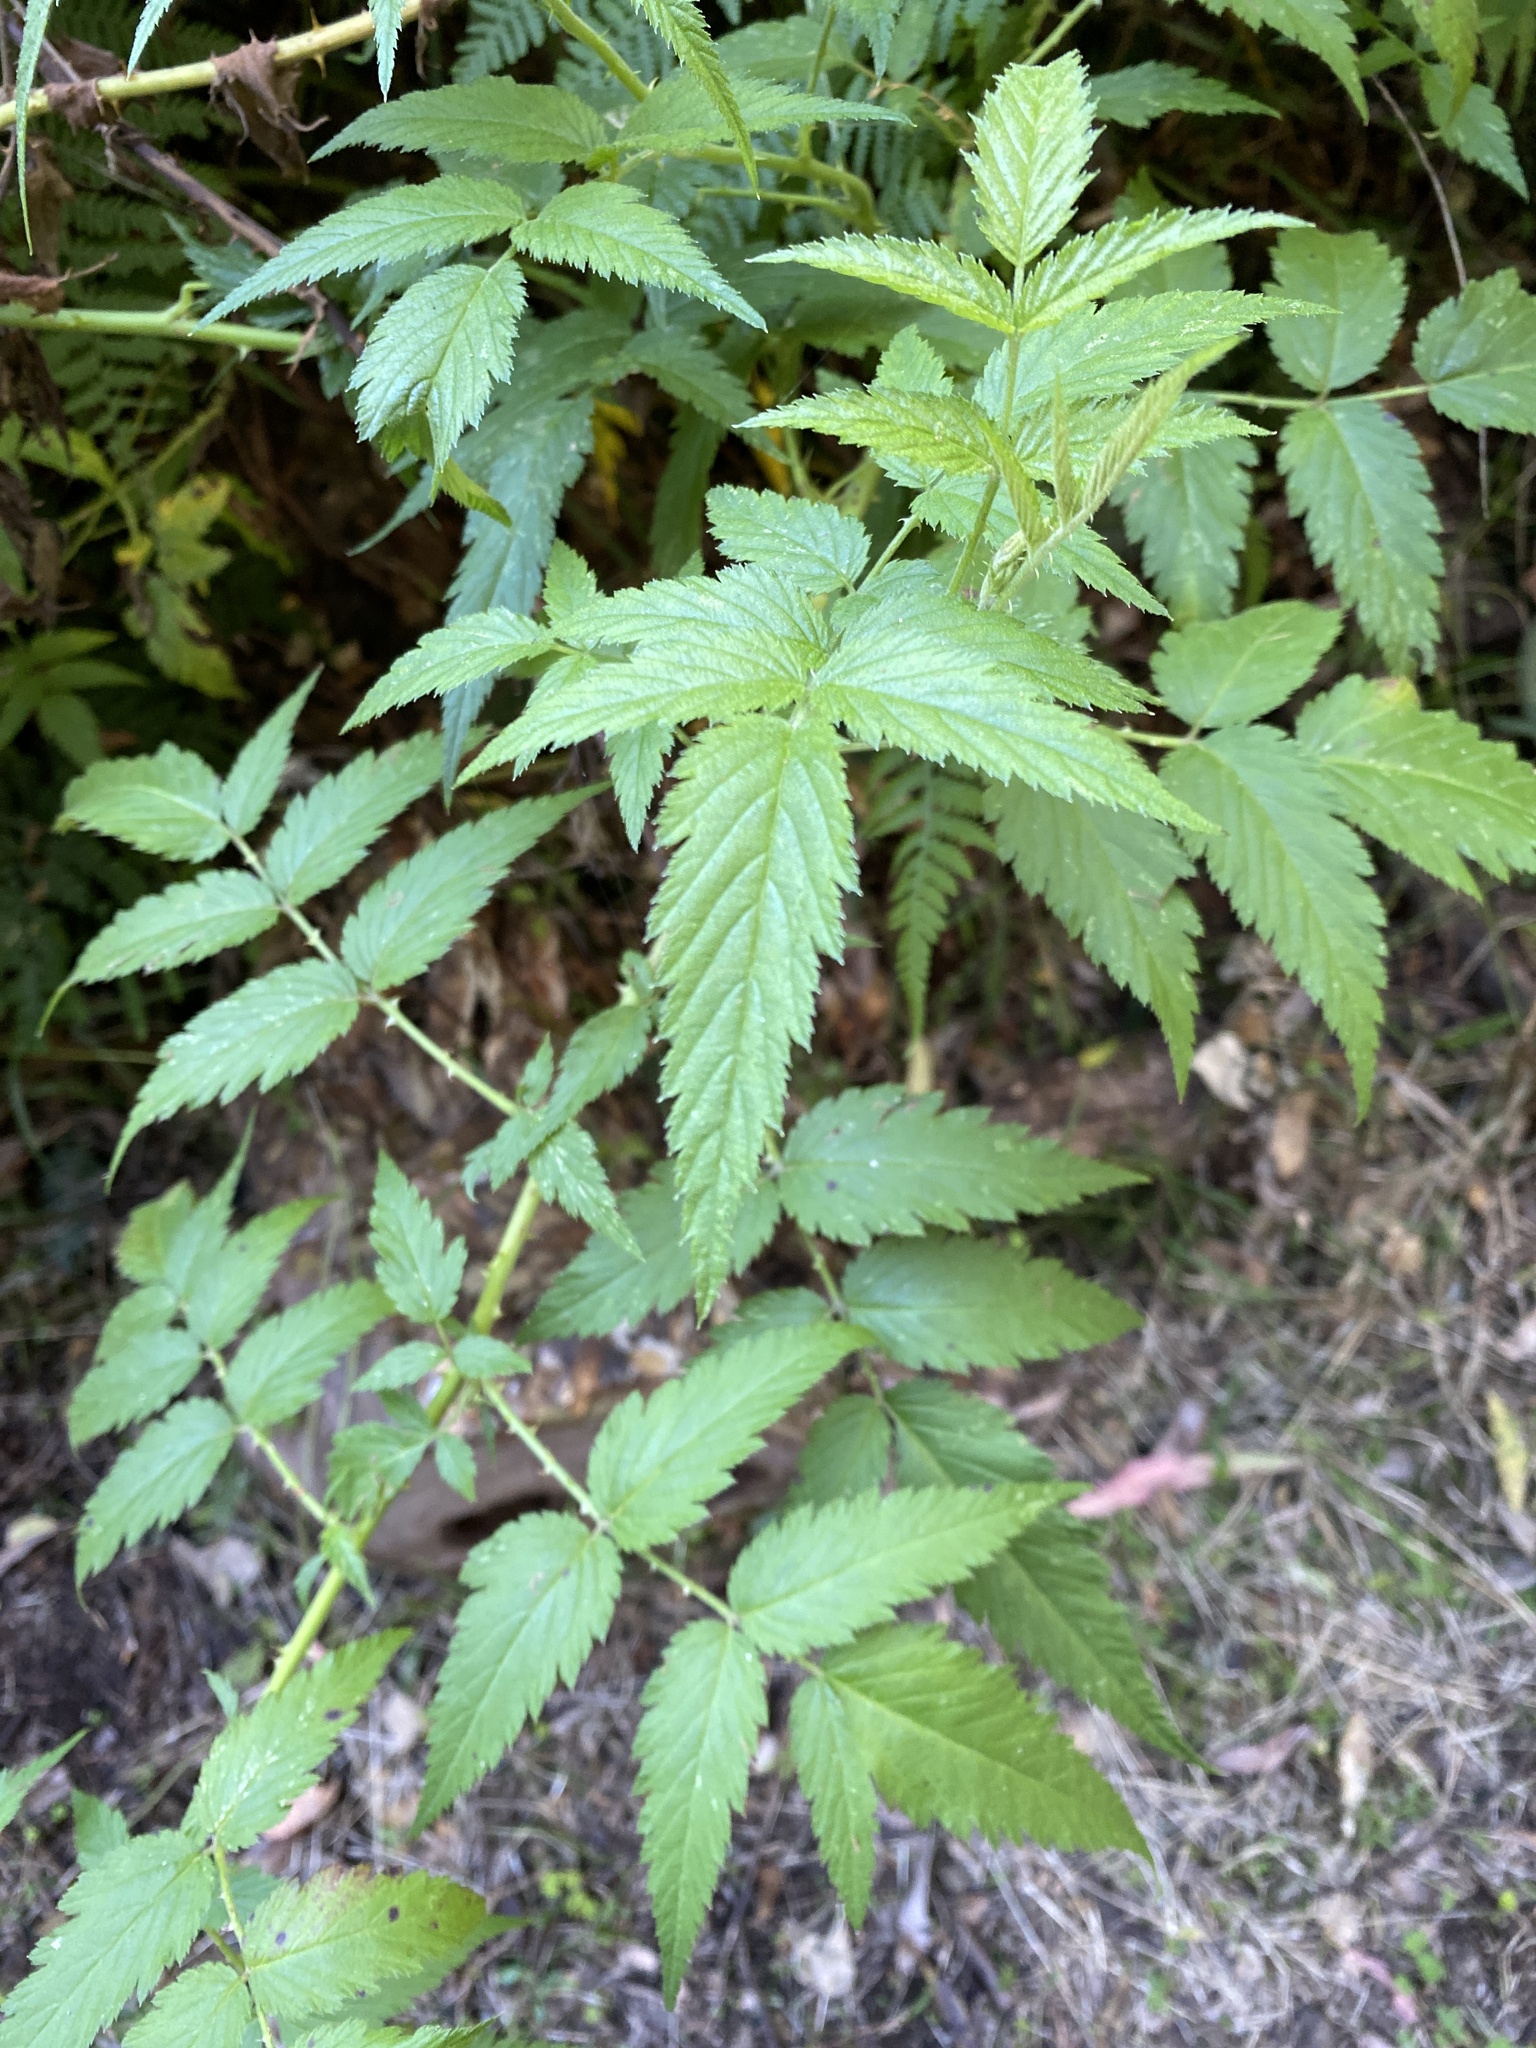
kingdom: Plantae
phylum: Tracheophyta
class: Magnoliopsida
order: Rosales
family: Rosaceae
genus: Rubus
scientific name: Rubus rosifolius
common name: Roseleaf raspberry
